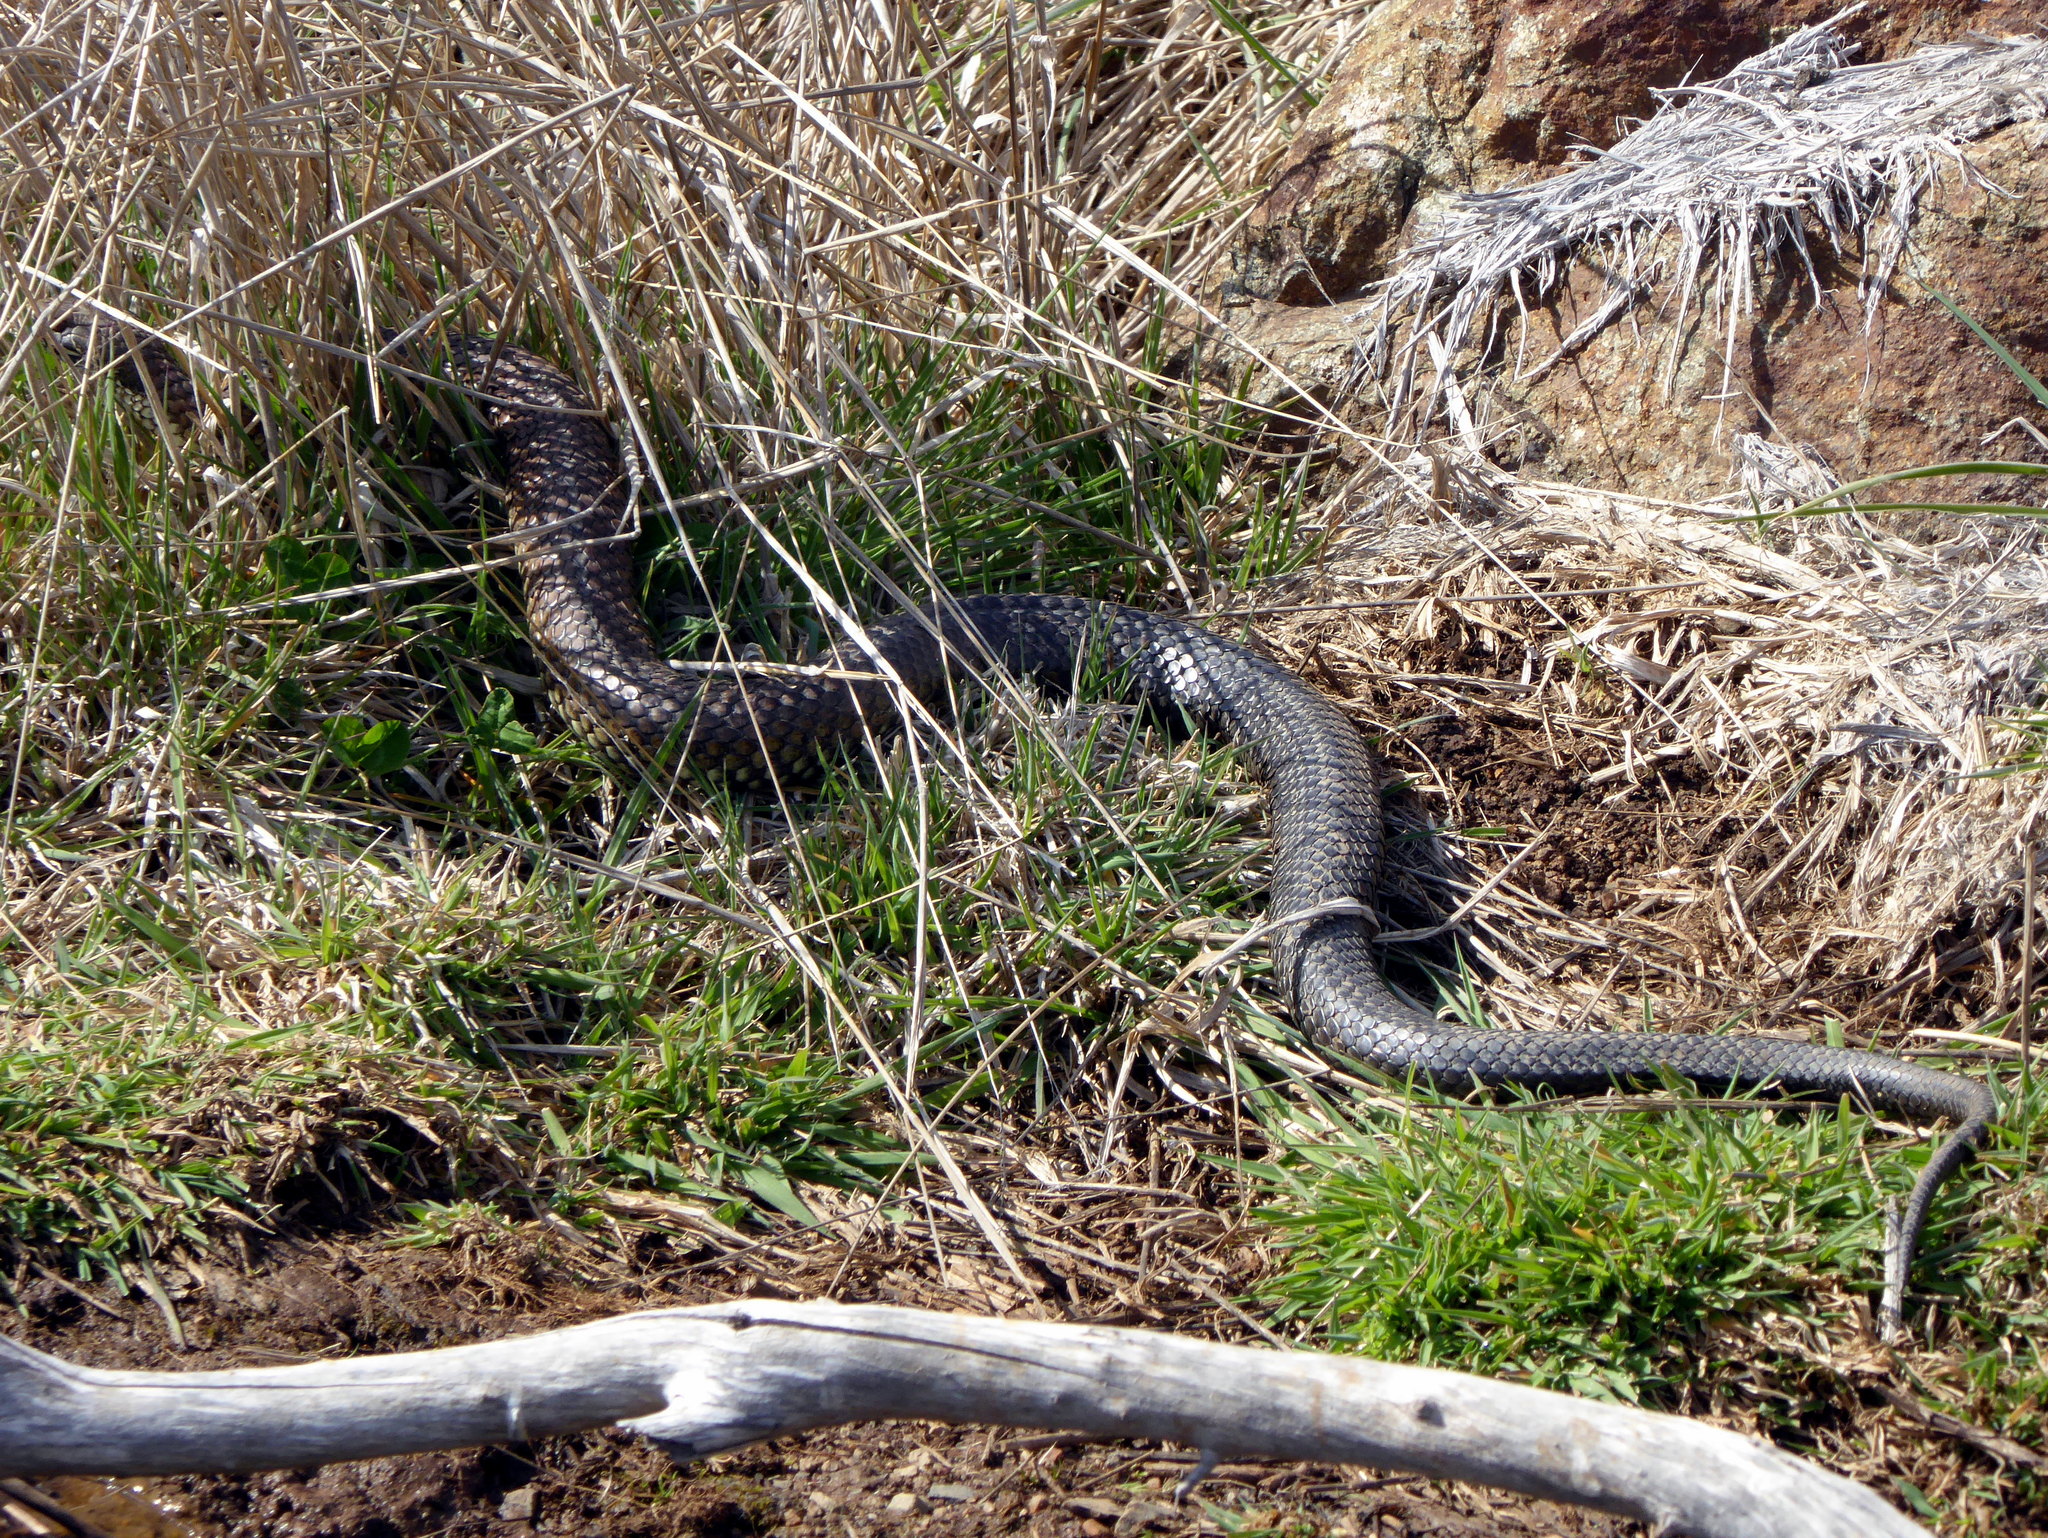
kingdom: Animalia
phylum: Chordata
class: Squamata
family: Elapidae
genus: Austrelaps
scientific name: Austrelaps ramsayi
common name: Highlands copperhead
